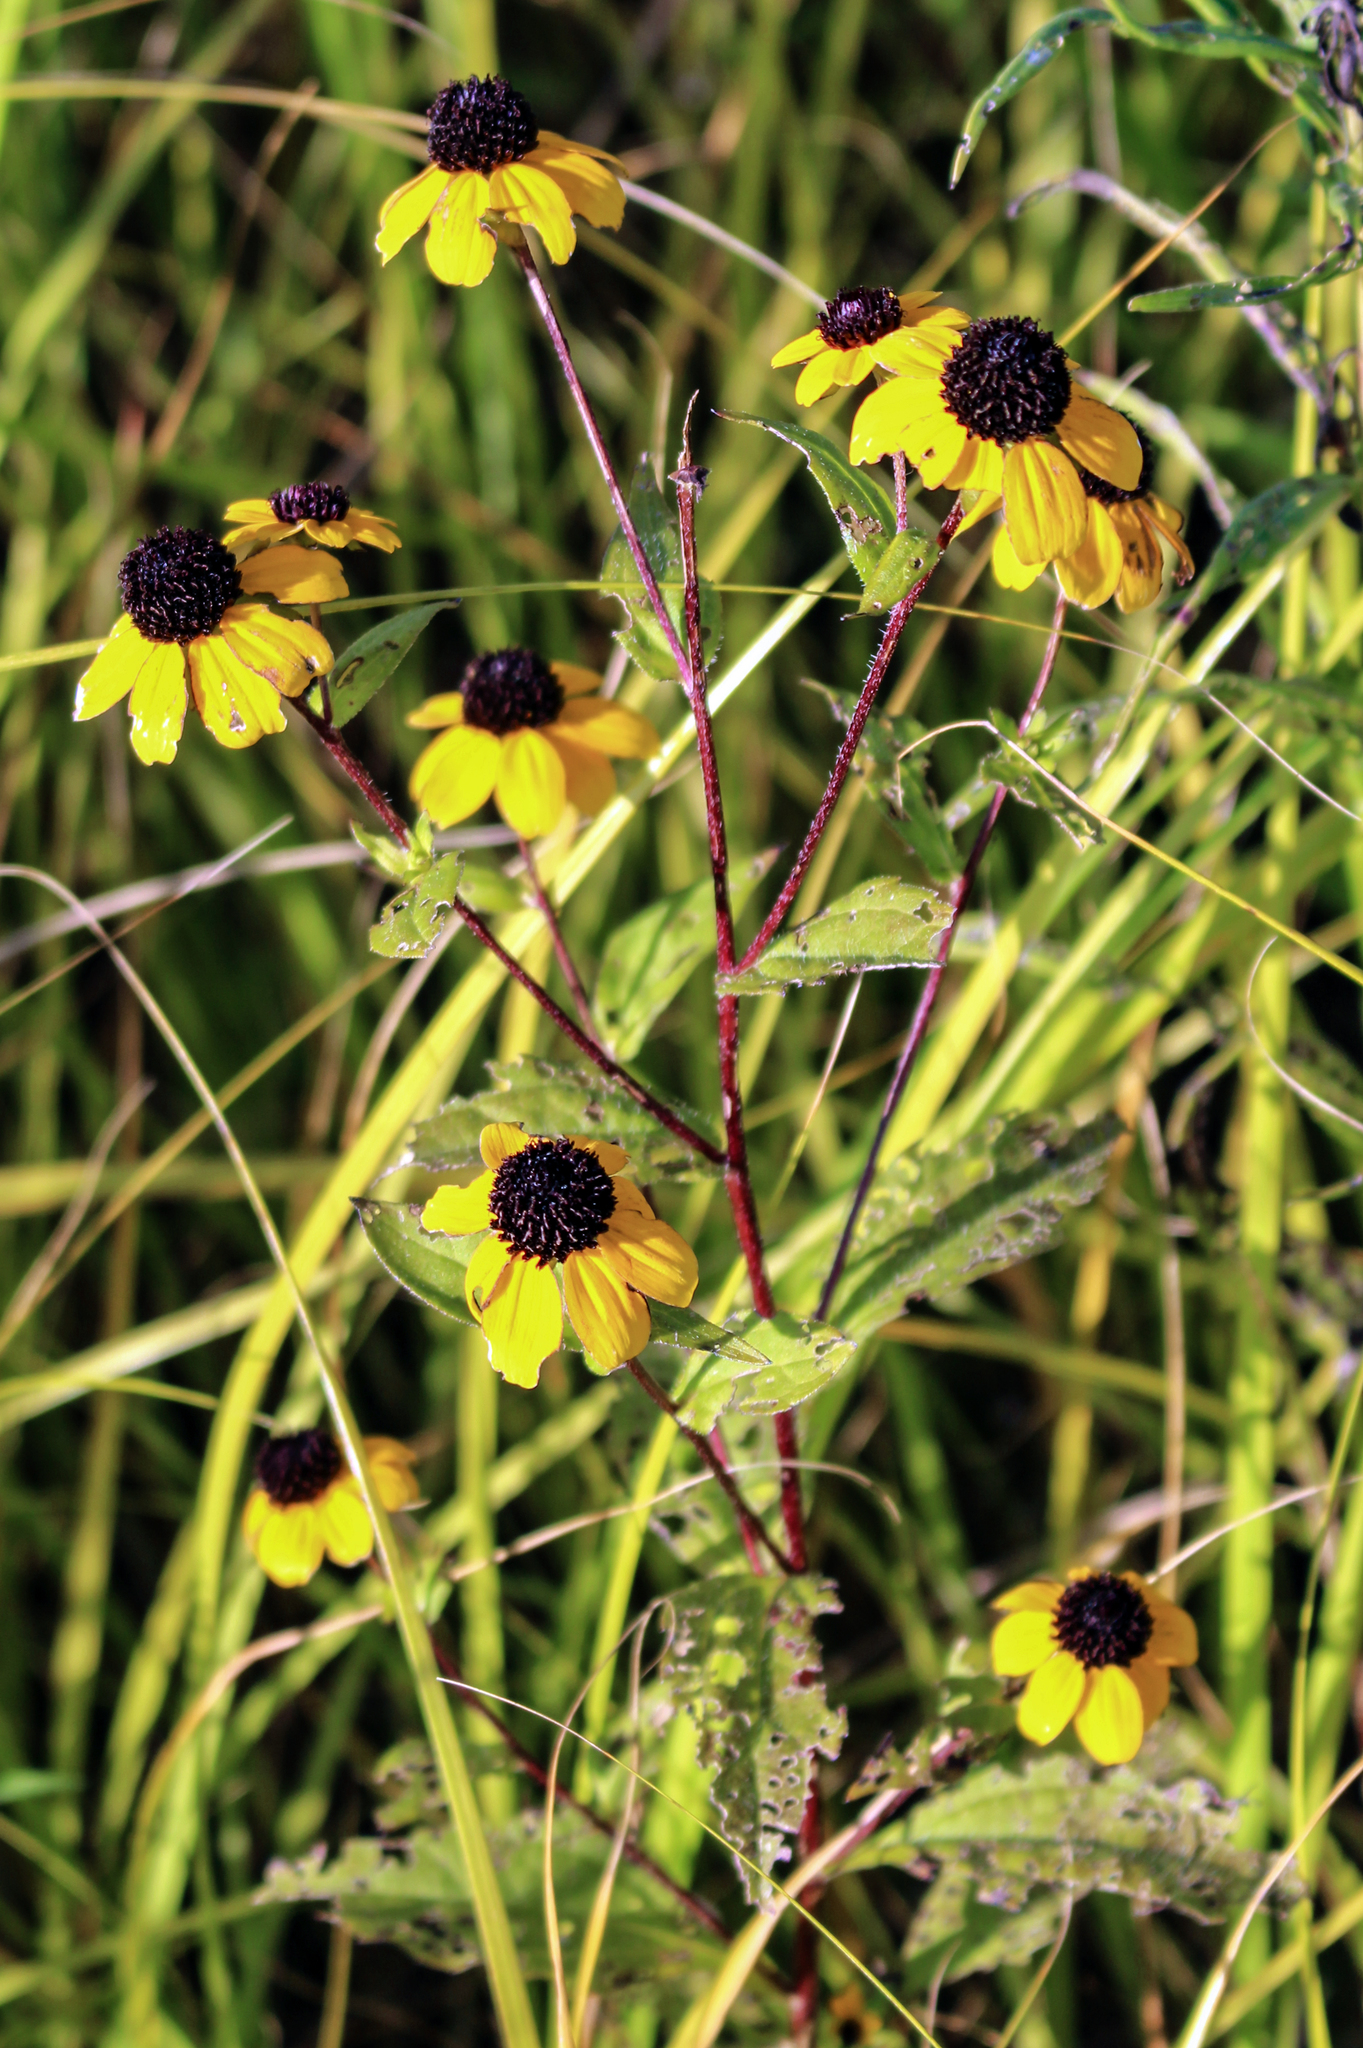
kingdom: Plantae
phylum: Tracheophyta
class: Magnoliopsida
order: Asterales
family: Asteraceae
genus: Rudbeckia
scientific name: Rudbeckia triloba
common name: Thin-leaved coneflower
